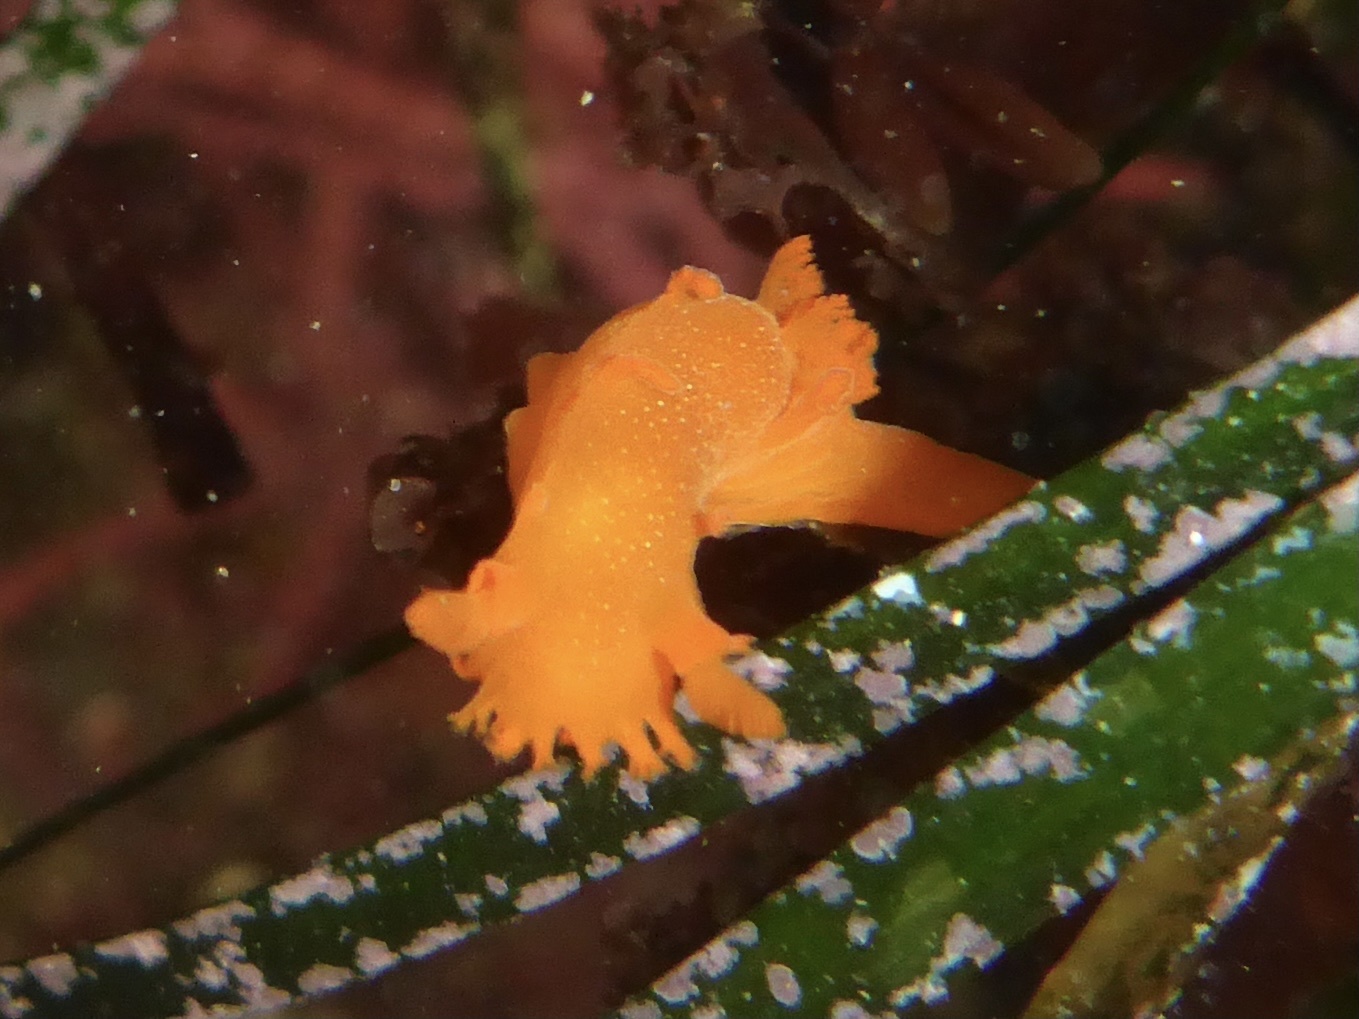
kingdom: Animalia
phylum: Mollusca
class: Gastropoda
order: Nudibranchia
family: Polyceridae
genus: Triopha
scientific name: Triopha maculata
